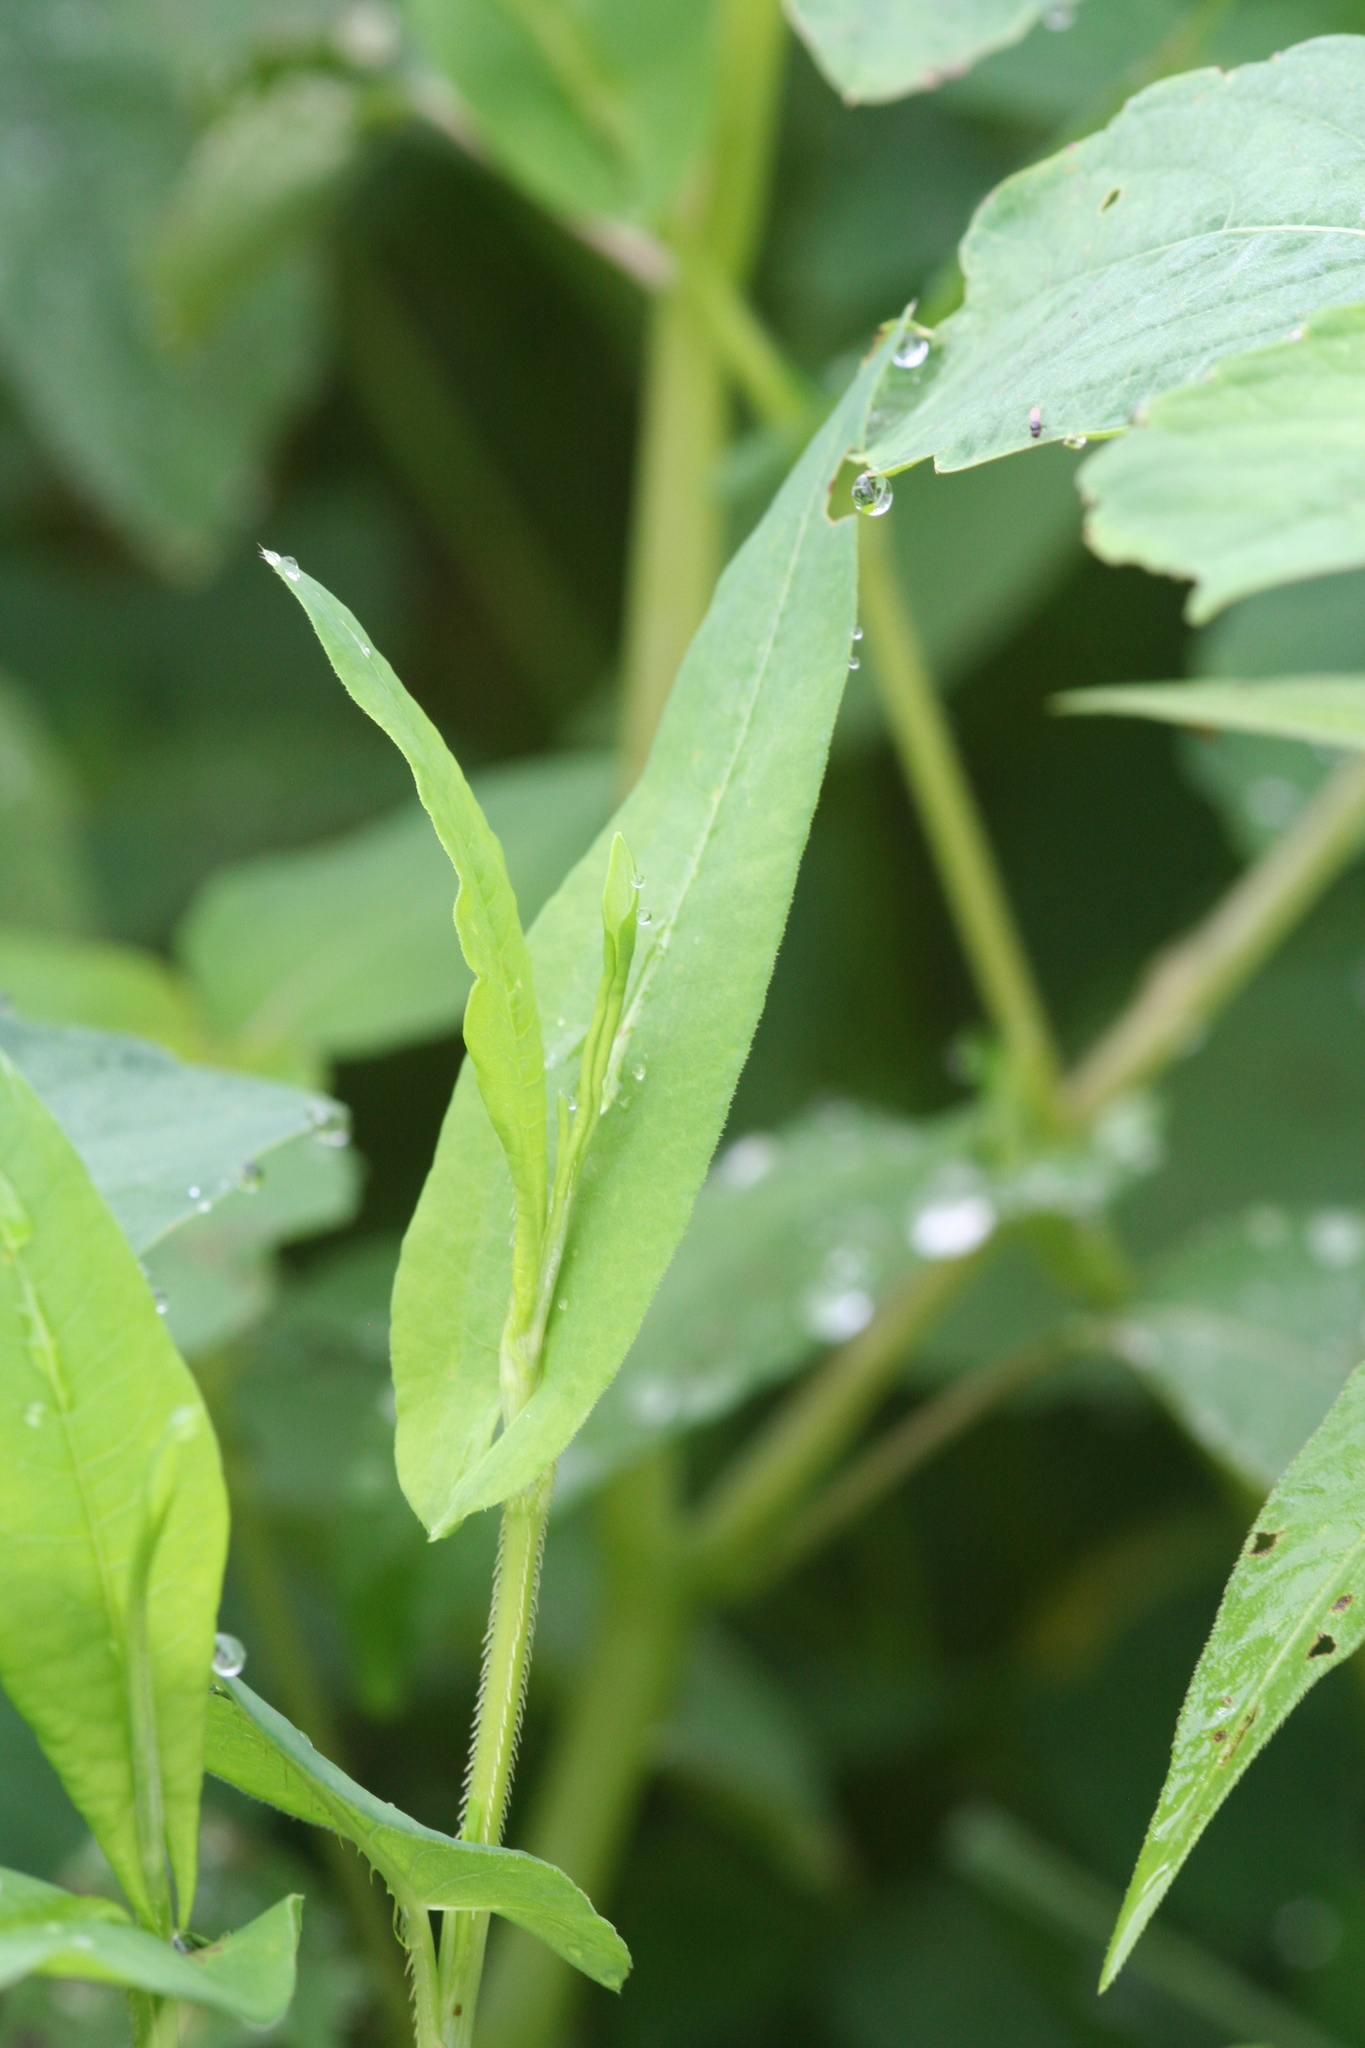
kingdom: Plantae
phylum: Tracheophyta
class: Magnoliopsida
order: Caryophyllales
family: Polygonaceae
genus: Persicaria
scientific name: Persicaria sagittata
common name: American tearthumb
